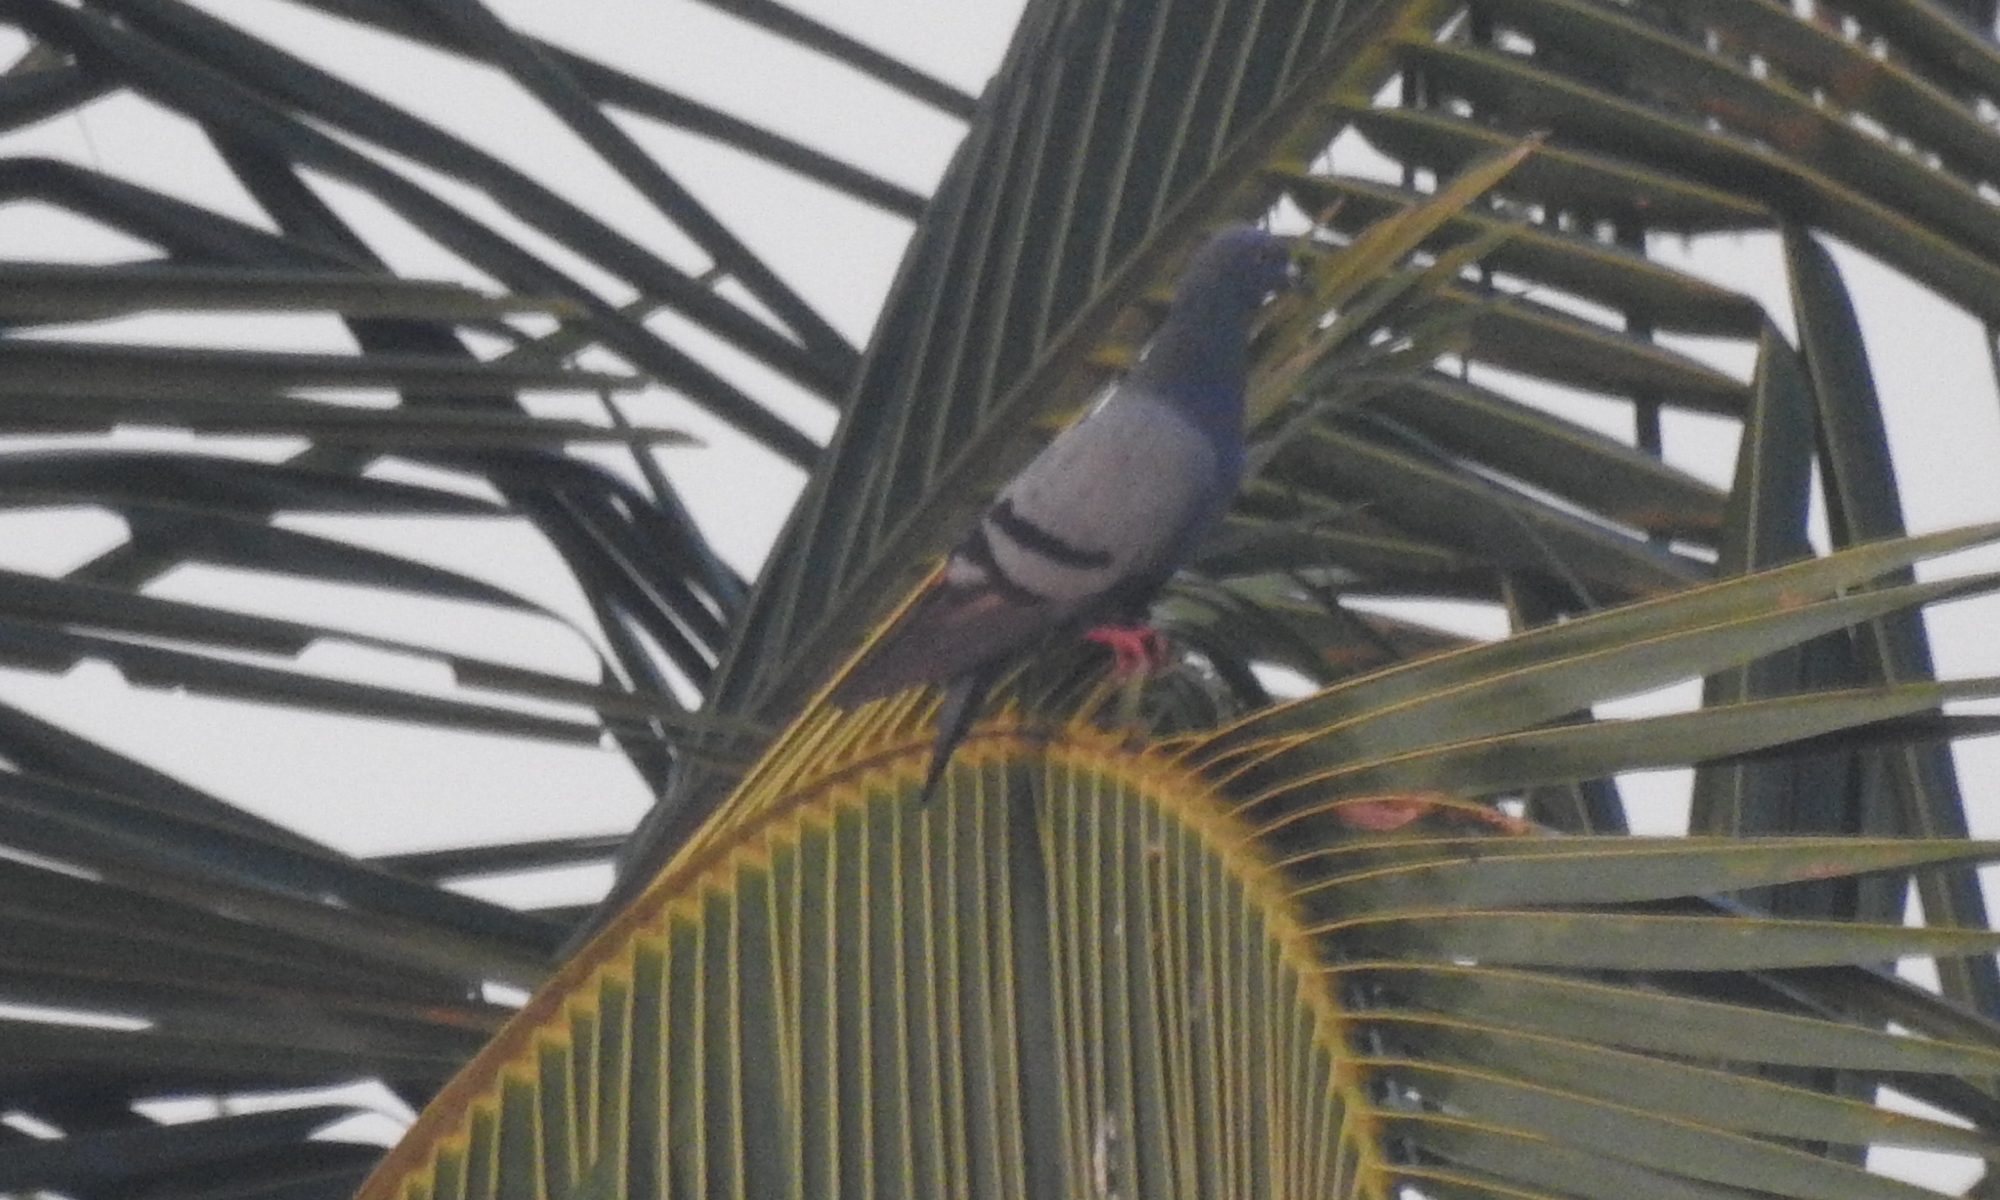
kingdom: Animalia
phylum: Chordata
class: Aves
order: Columbiformes
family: Columbidae
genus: Columba
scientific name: Columba livia
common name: Rock pigeon
